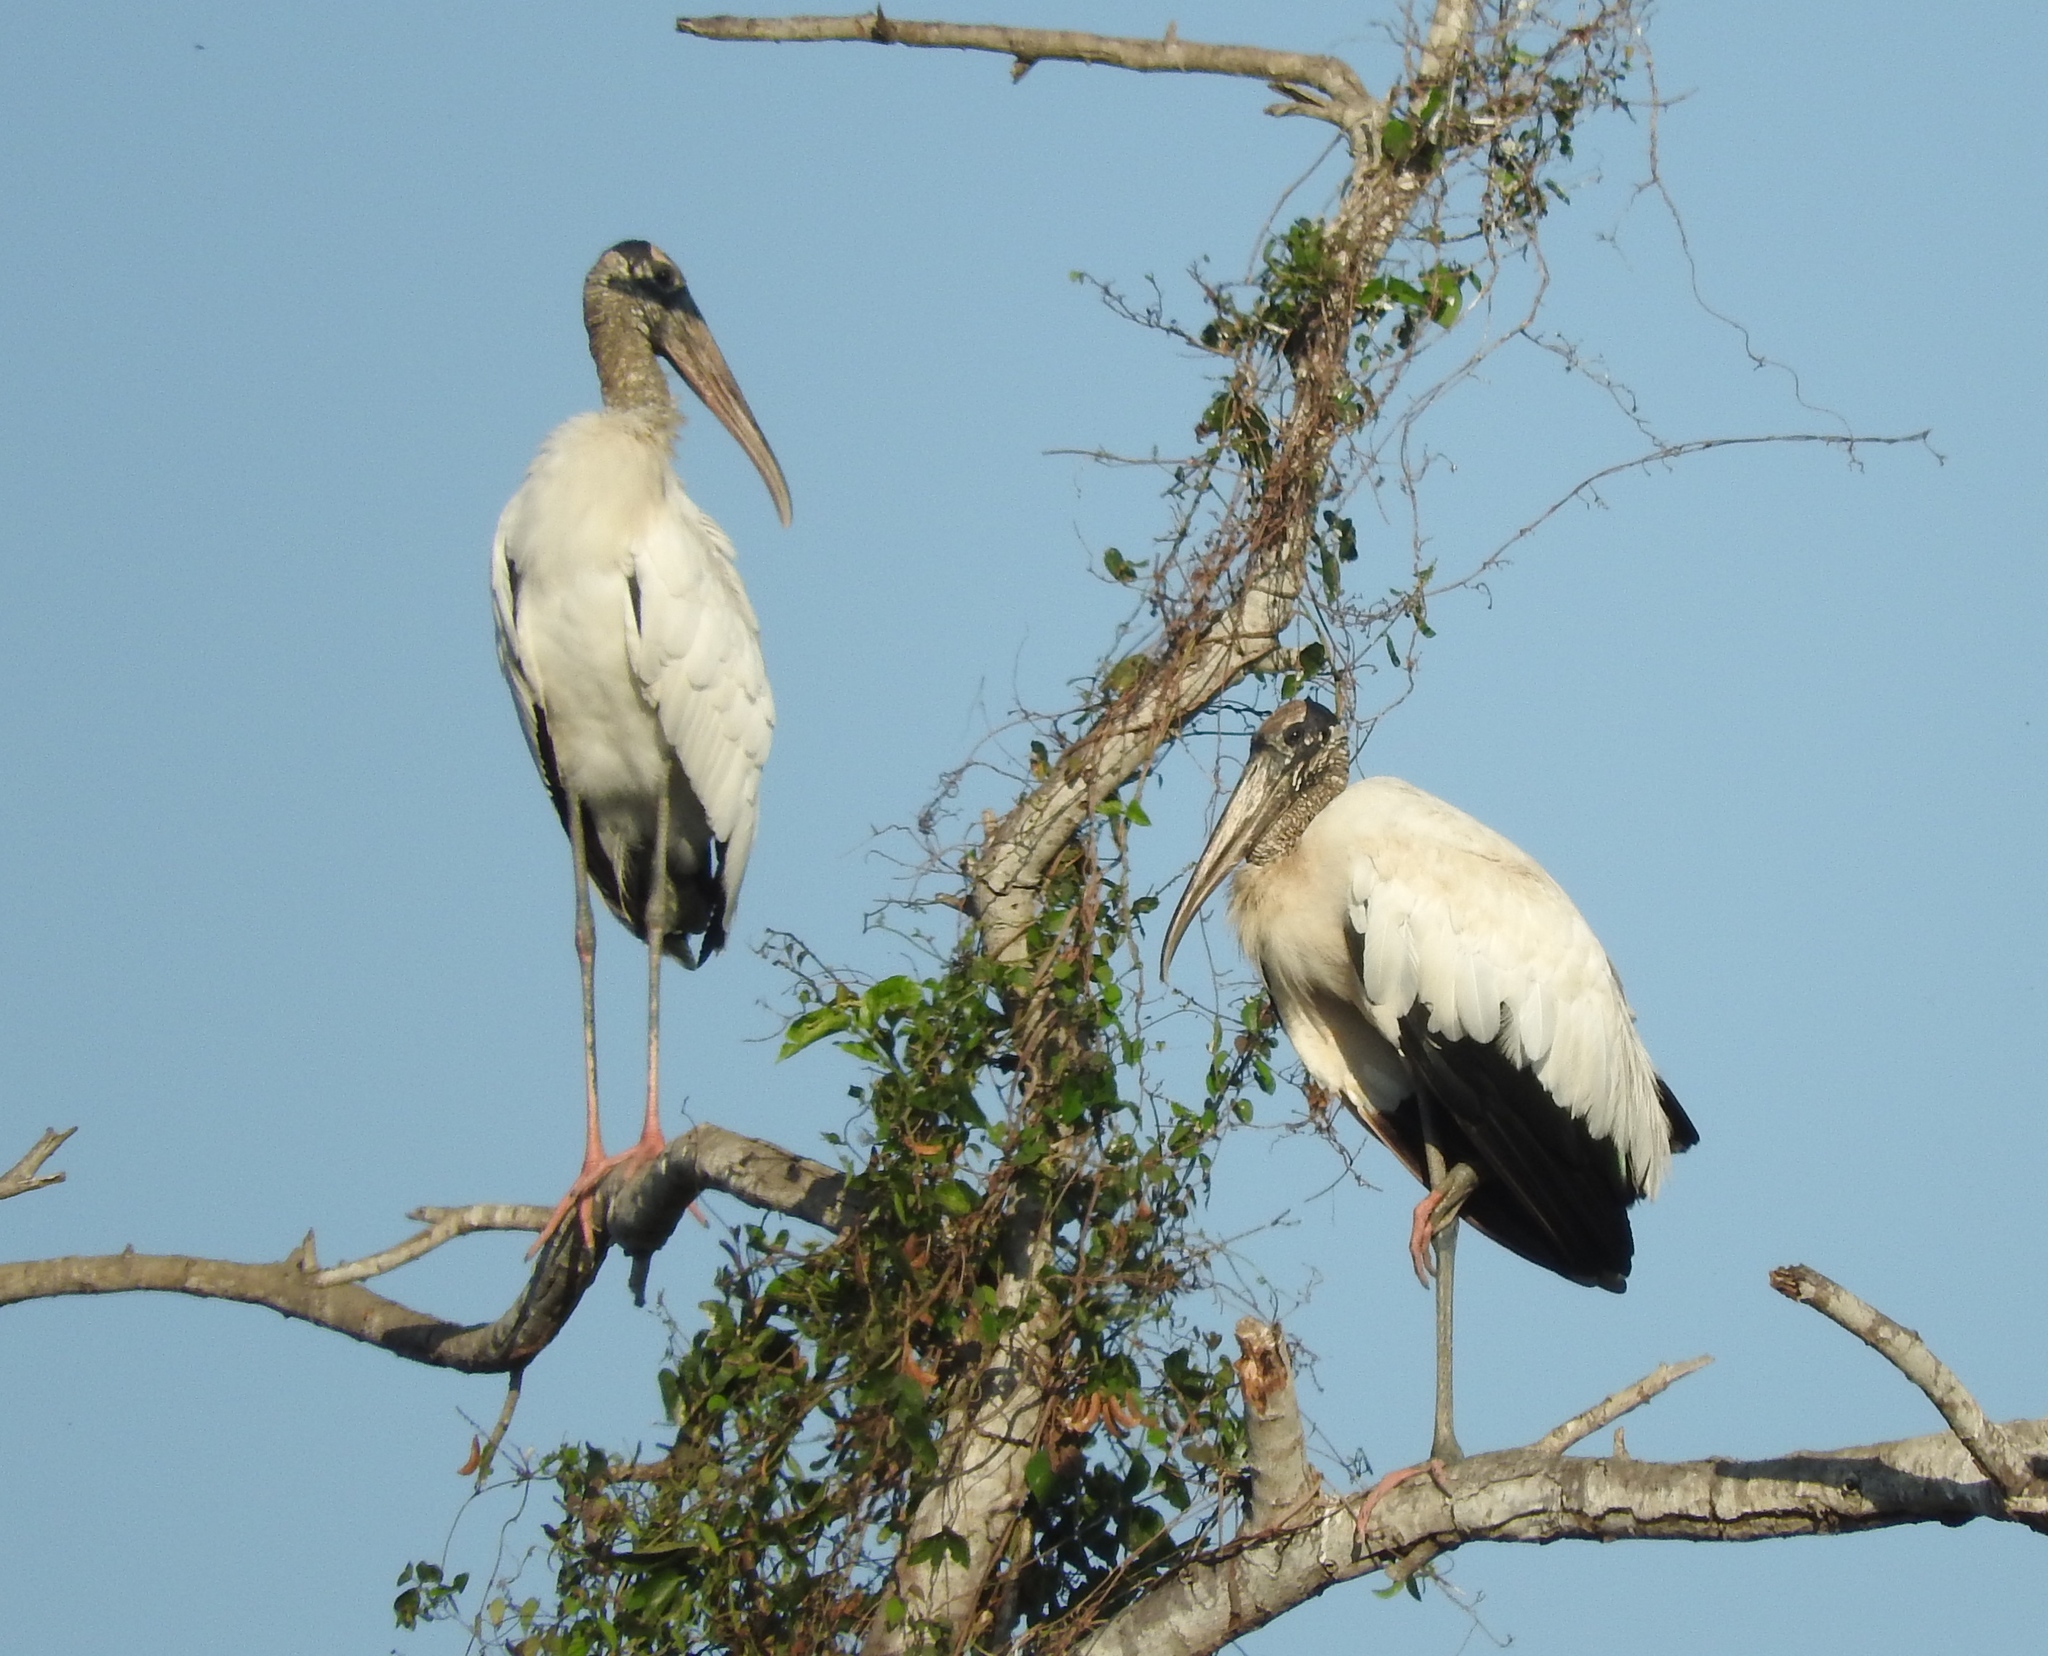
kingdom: Animalia
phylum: Chordata
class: Aves
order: Ciconiiformes
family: Ciconiidae
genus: Mycteria
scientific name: Mycteria americana
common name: Wood stork
